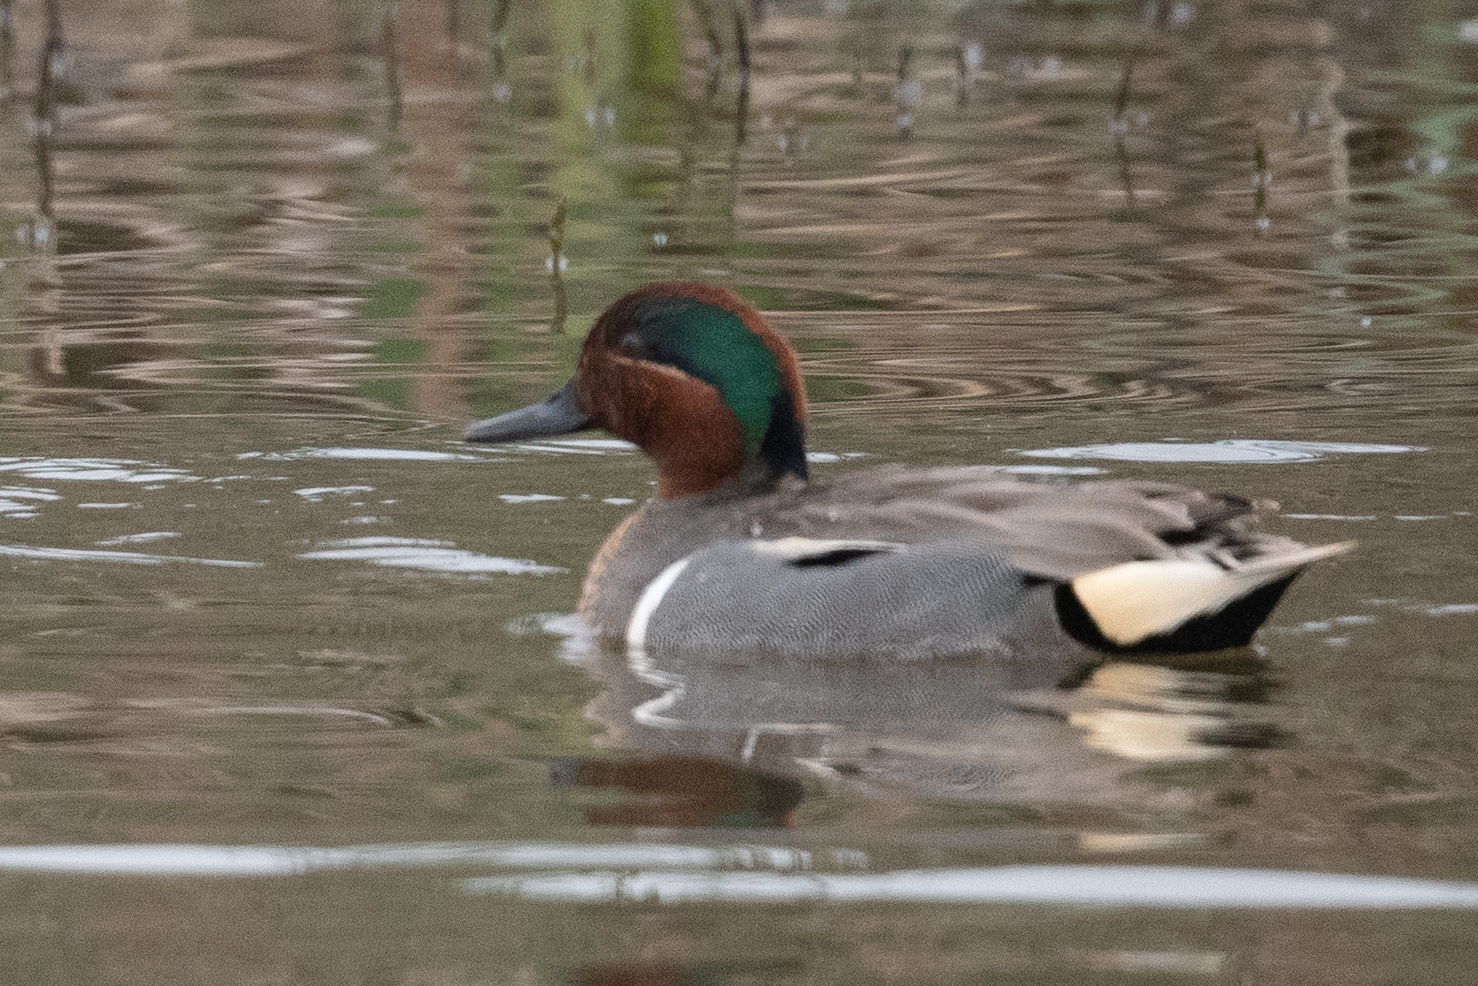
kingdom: Animalia
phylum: Chordata
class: Aves
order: Anseriformes
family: Anatidae
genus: Anas
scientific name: Anas crecca
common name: Eurasian teal
